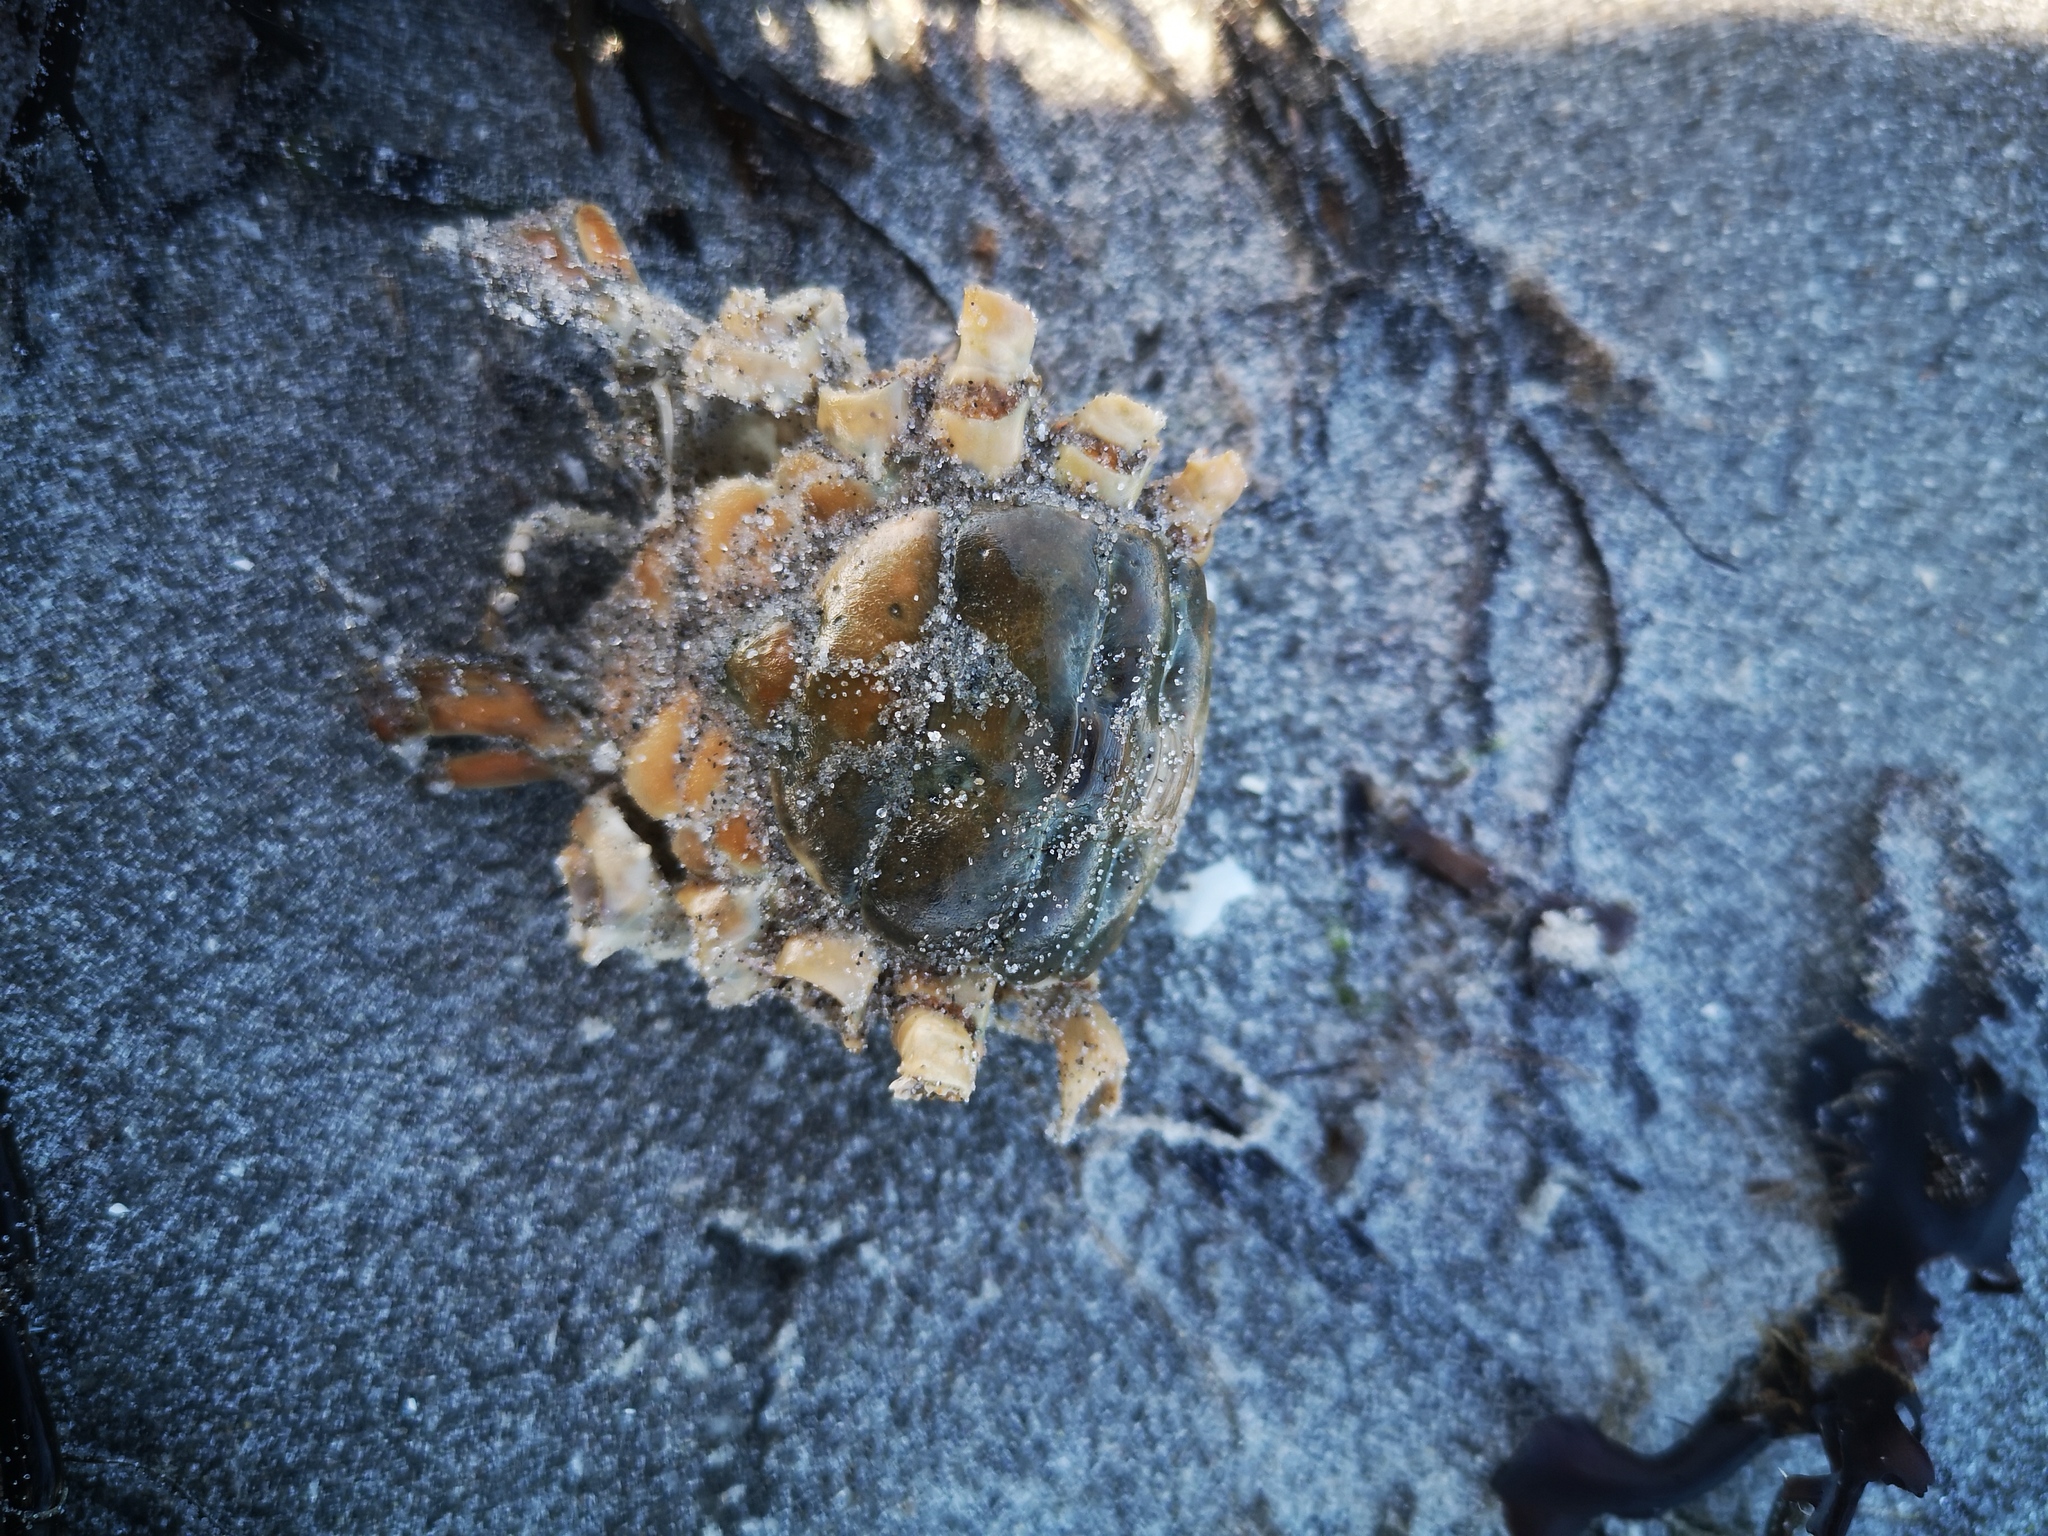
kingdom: Animalia
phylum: Arthropoda
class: Malacostraca
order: Decapoda
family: Carcinidae
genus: Carcinus
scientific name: Carcinus maenas
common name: European green crab
